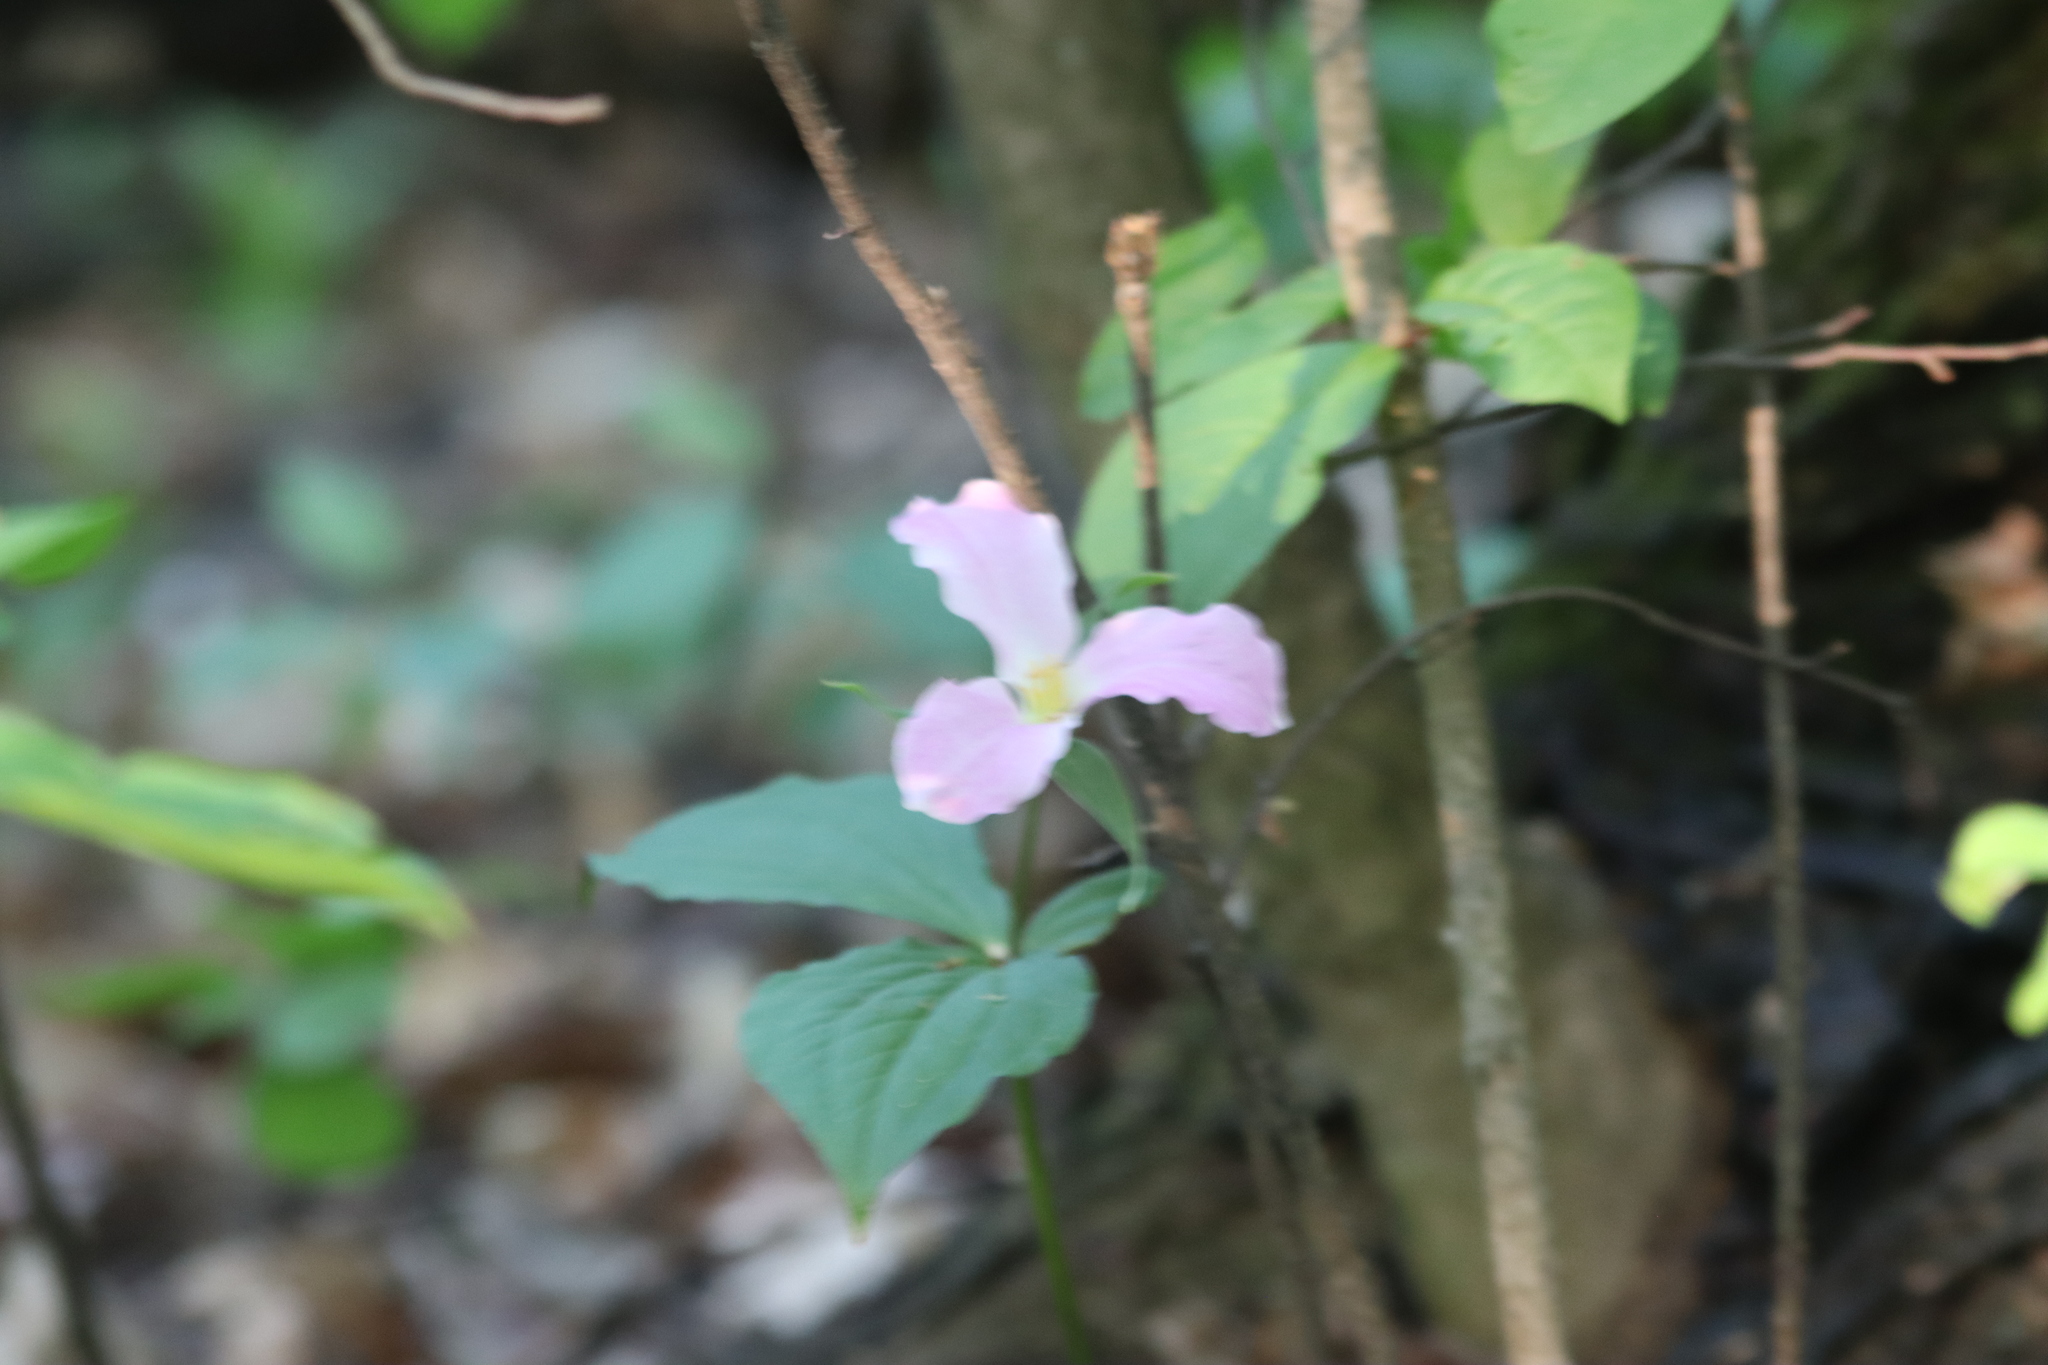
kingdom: Plantae
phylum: Tracheophyta
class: Liliopsida
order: Liliales
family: Melanthiaceae
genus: Trillium
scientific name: Trillium grandiflorum
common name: Great white trillium
